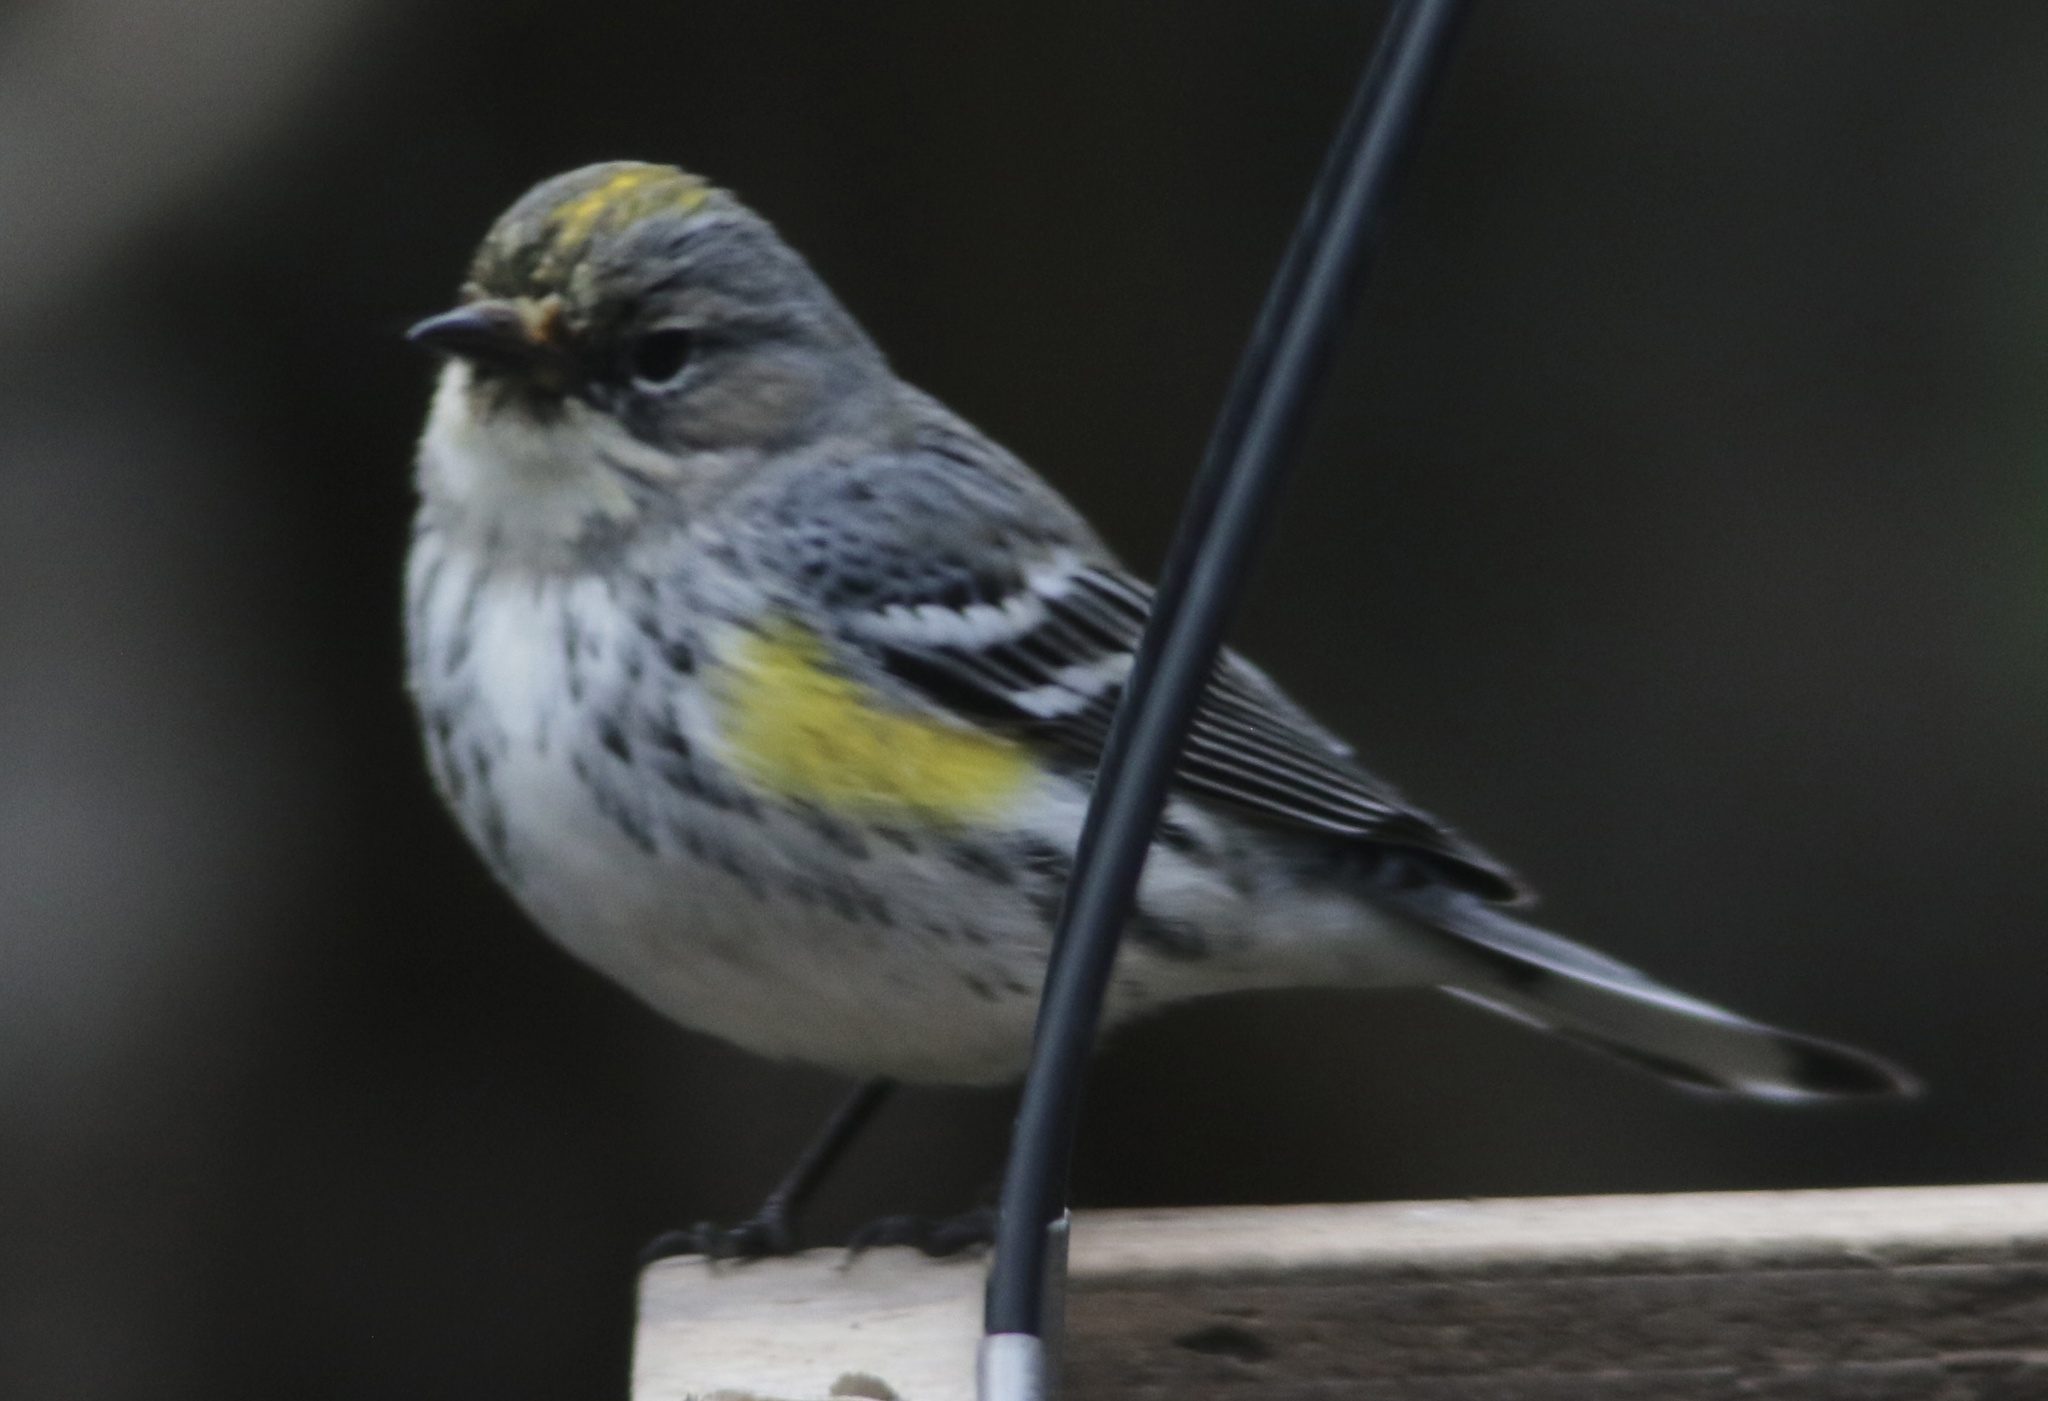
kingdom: Animalia
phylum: Chordata
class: Aves
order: Passeriformes
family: Parulidae
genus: Setophaga
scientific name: Setophaga coronata
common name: Myrtle warbler
